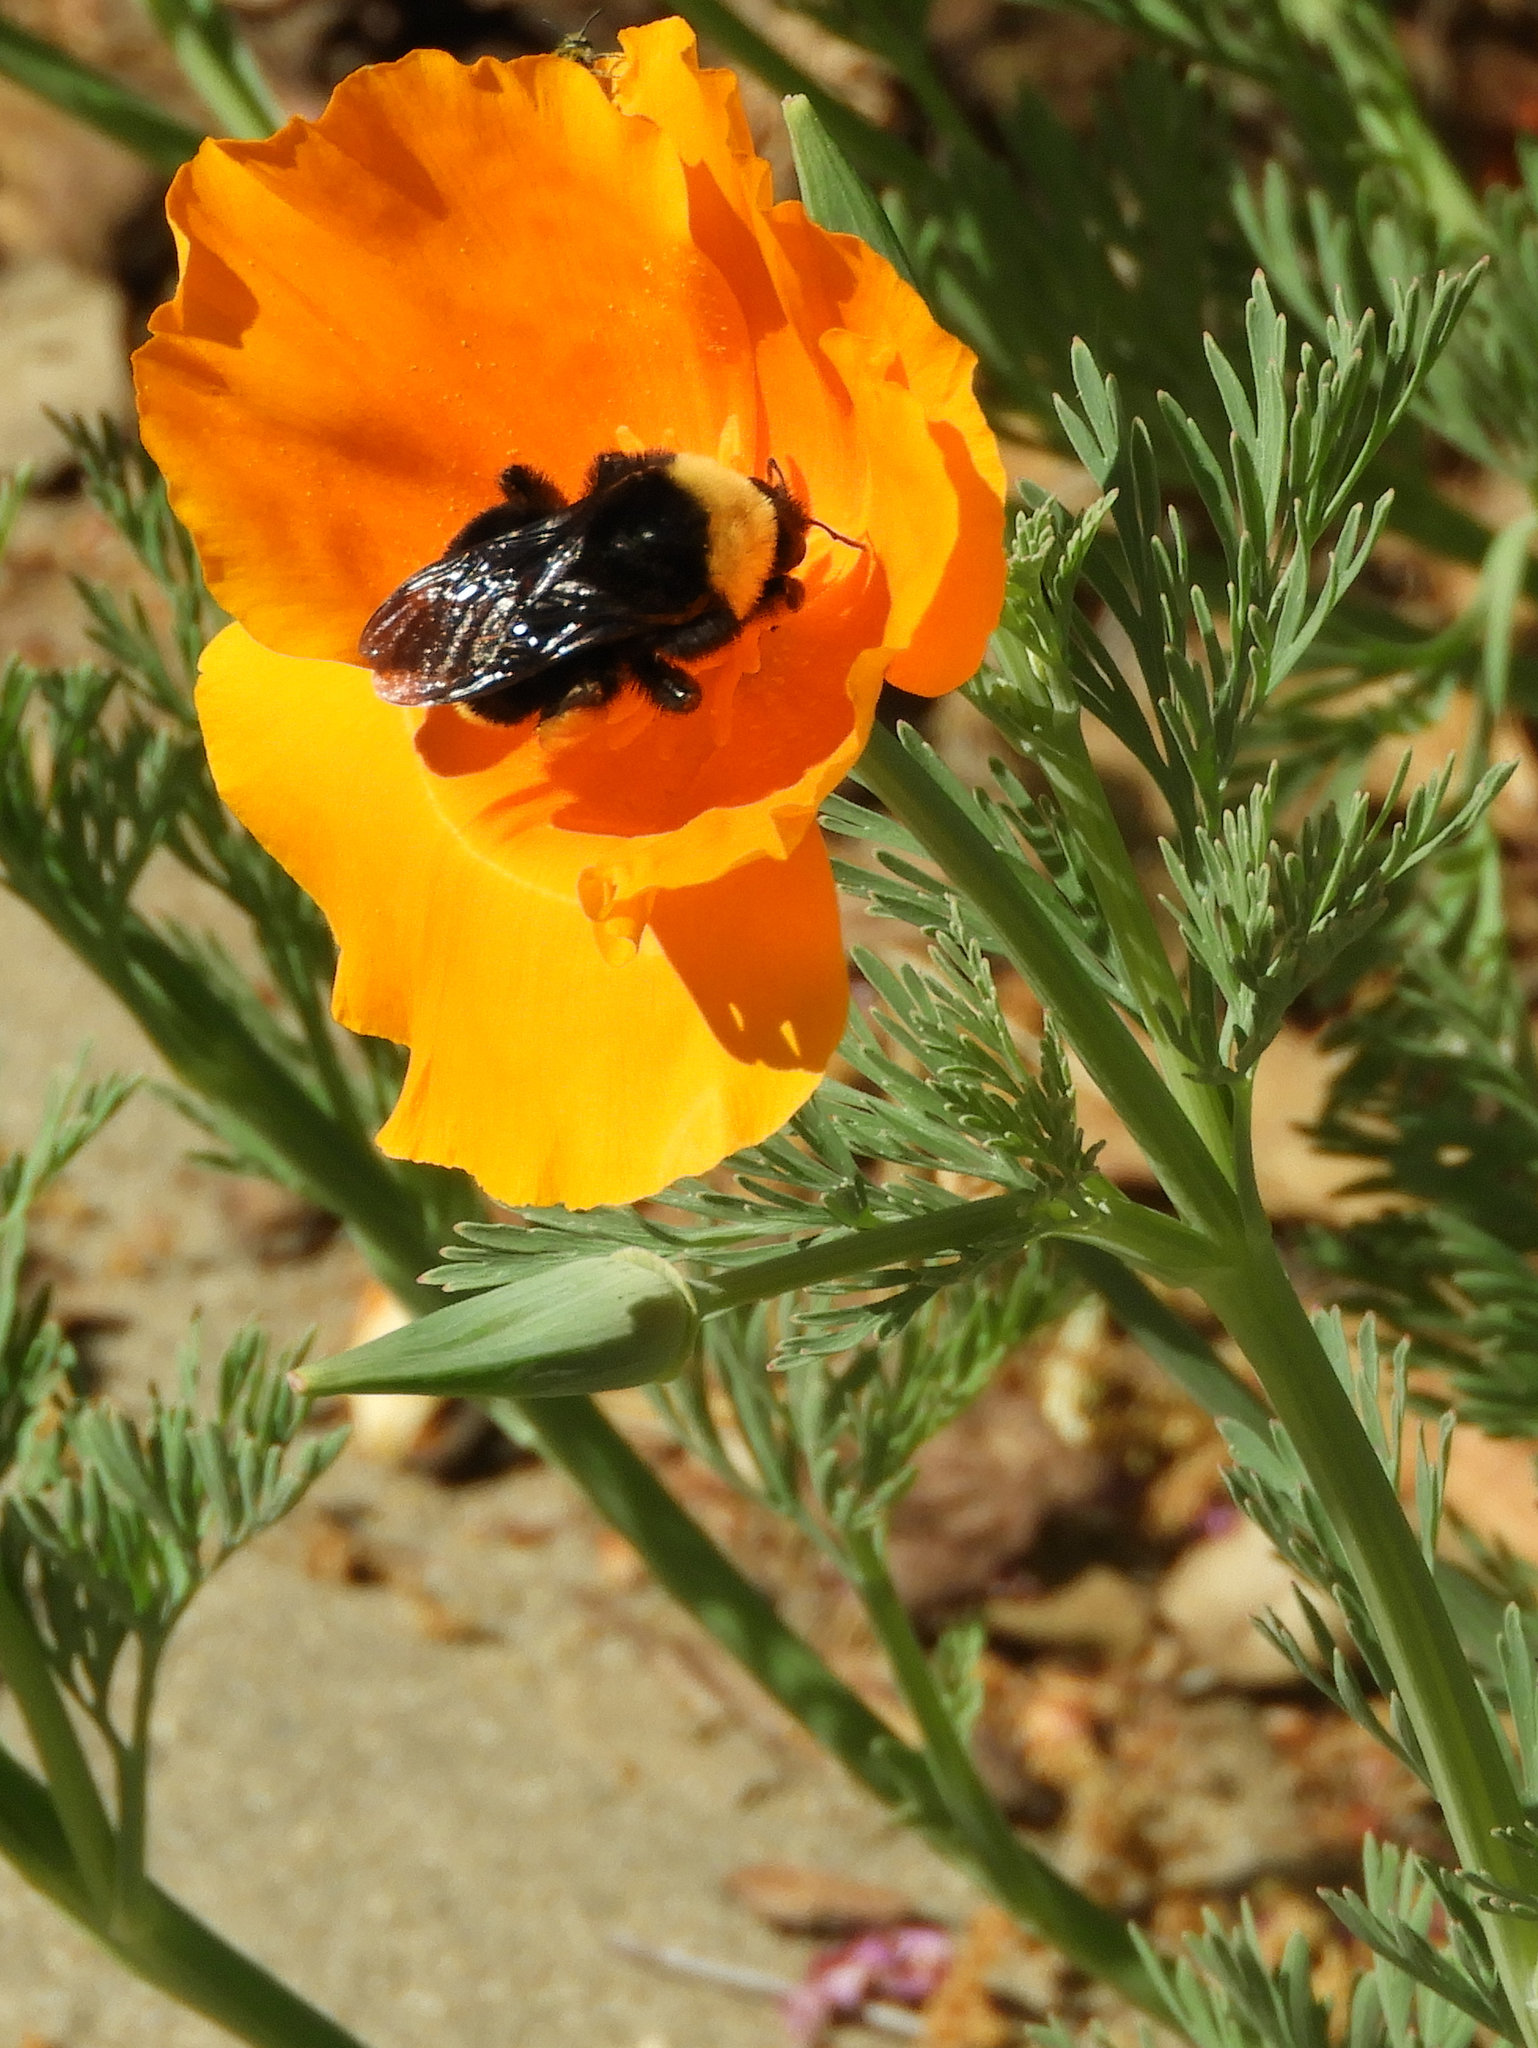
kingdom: Animalia
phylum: Arthropoda
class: Insecta
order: Hymenoptera
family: Apidae
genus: Bombus
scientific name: Bombus californicus
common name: California bumble bee
